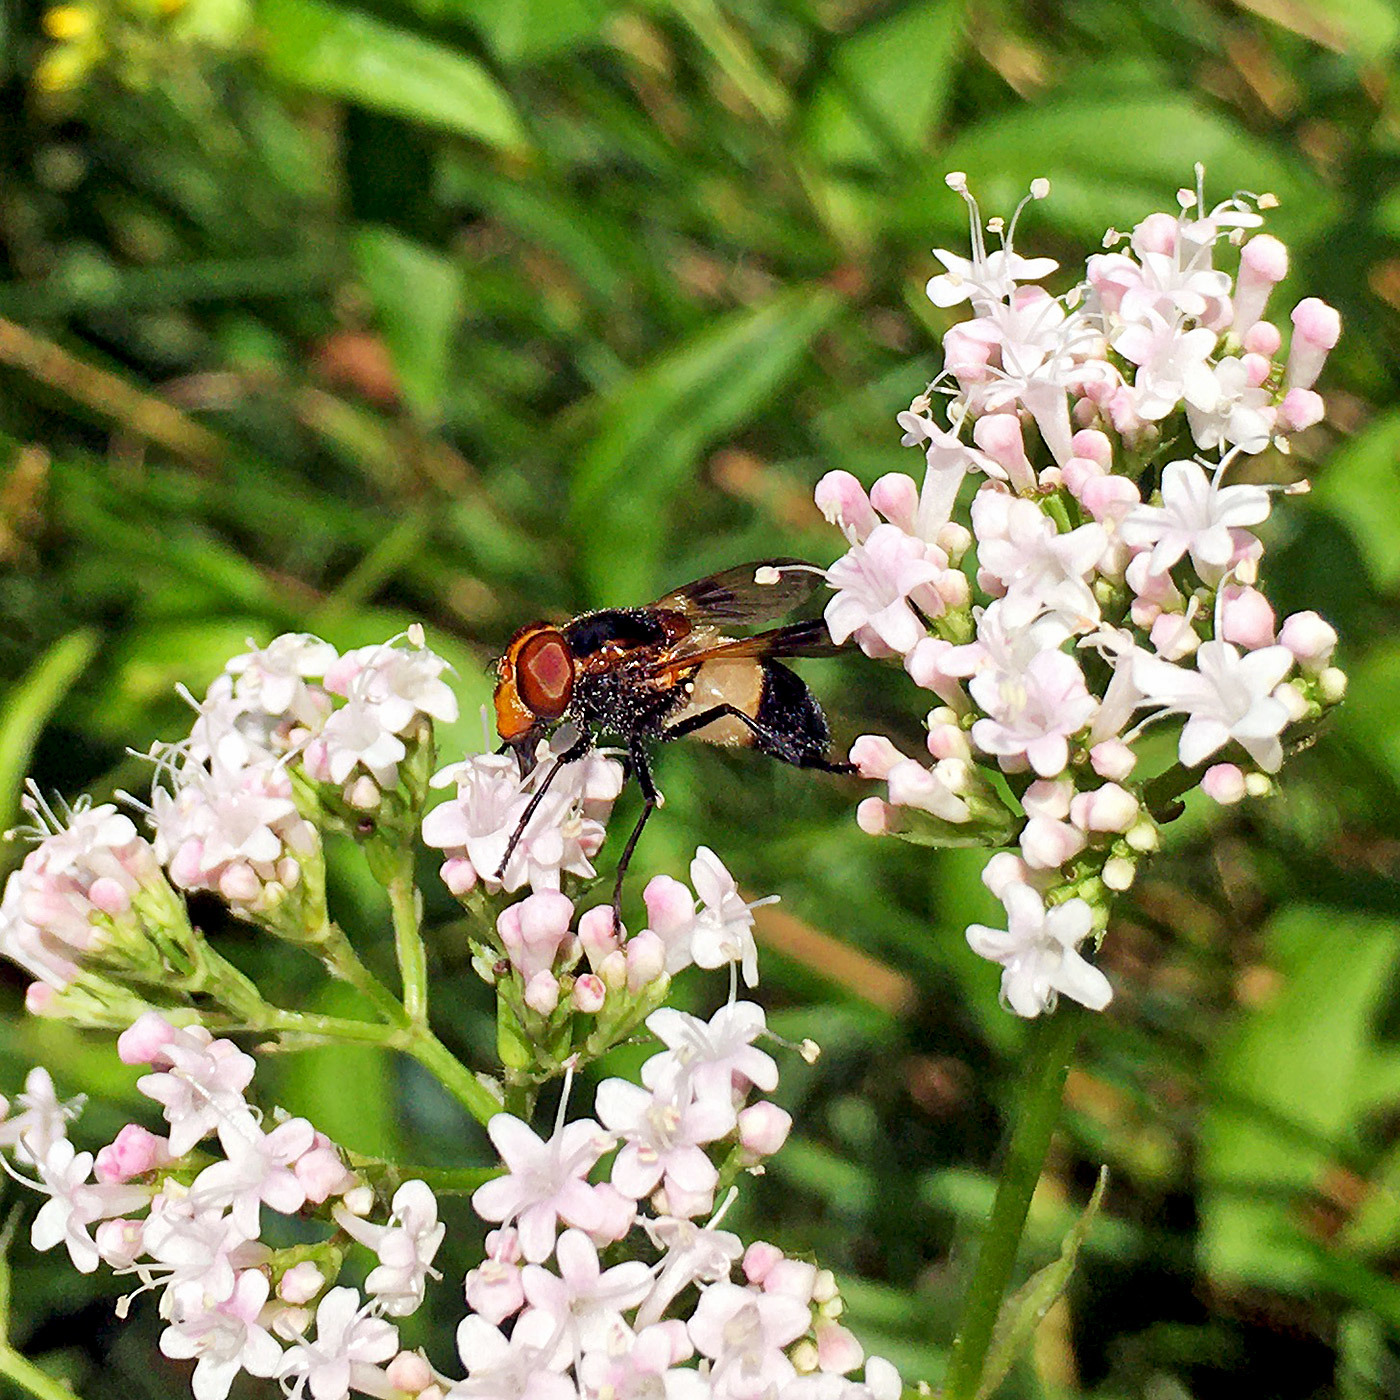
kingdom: Animalia
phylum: Arthropoda
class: Insecta
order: Diptera
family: Syrphidae
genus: Volucella
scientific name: Volucella pellucens
